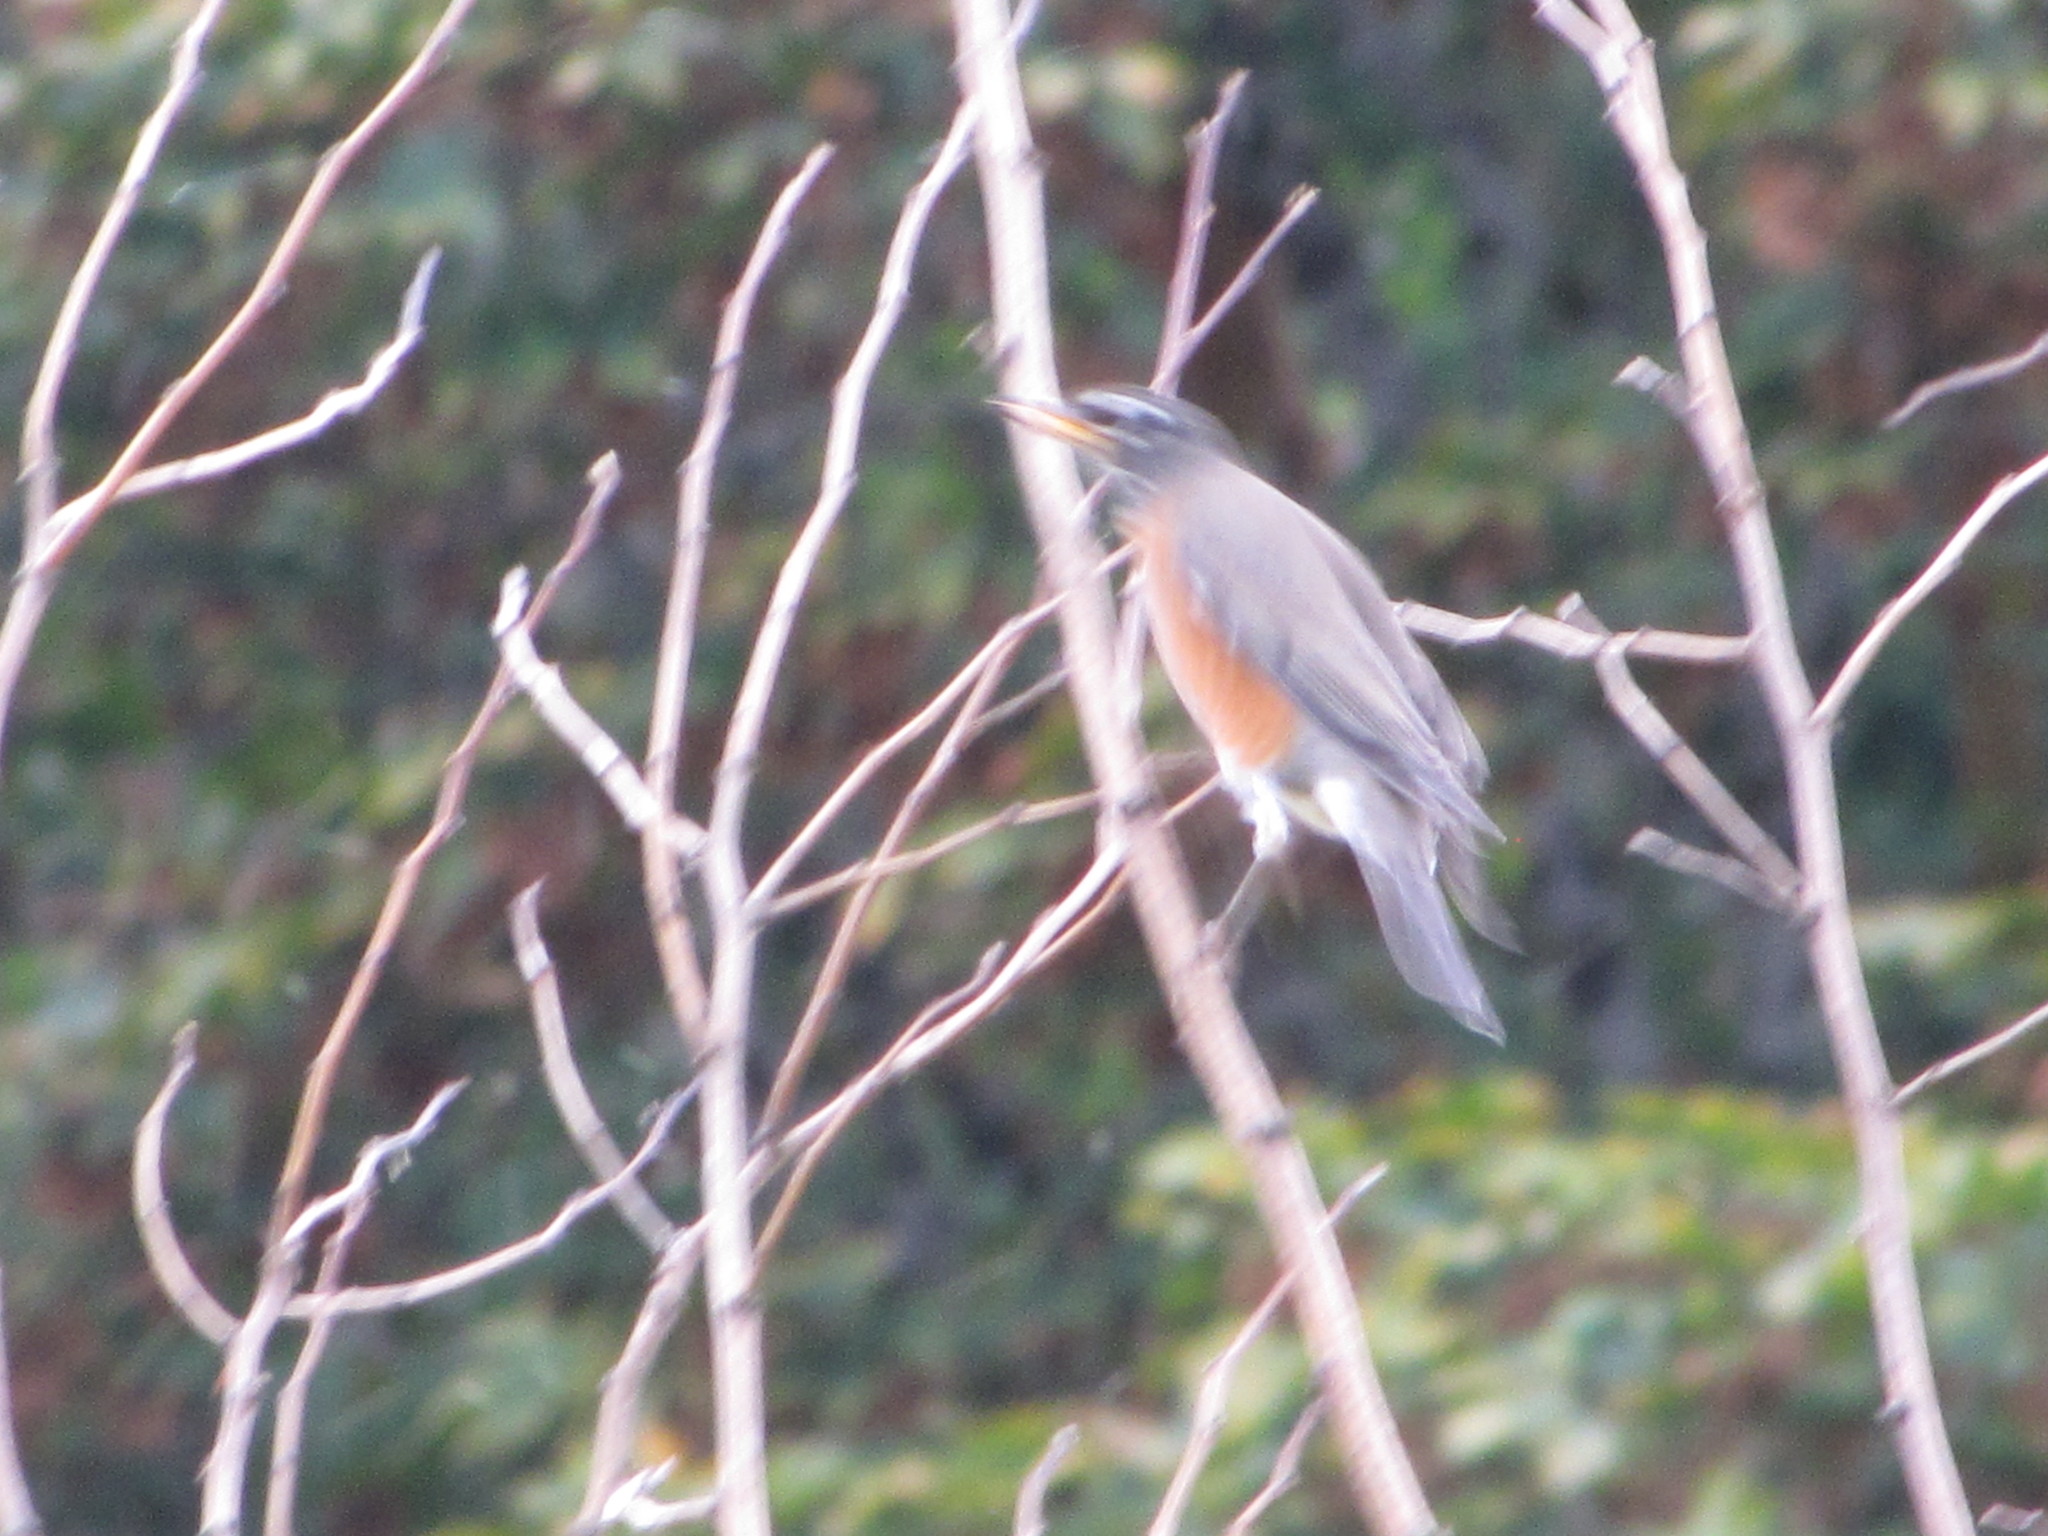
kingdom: Animalia
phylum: Chordata
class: Aves
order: Passeriformes
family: Turdidae
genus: Turdus
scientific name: Turdus migratorius
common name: American robin
